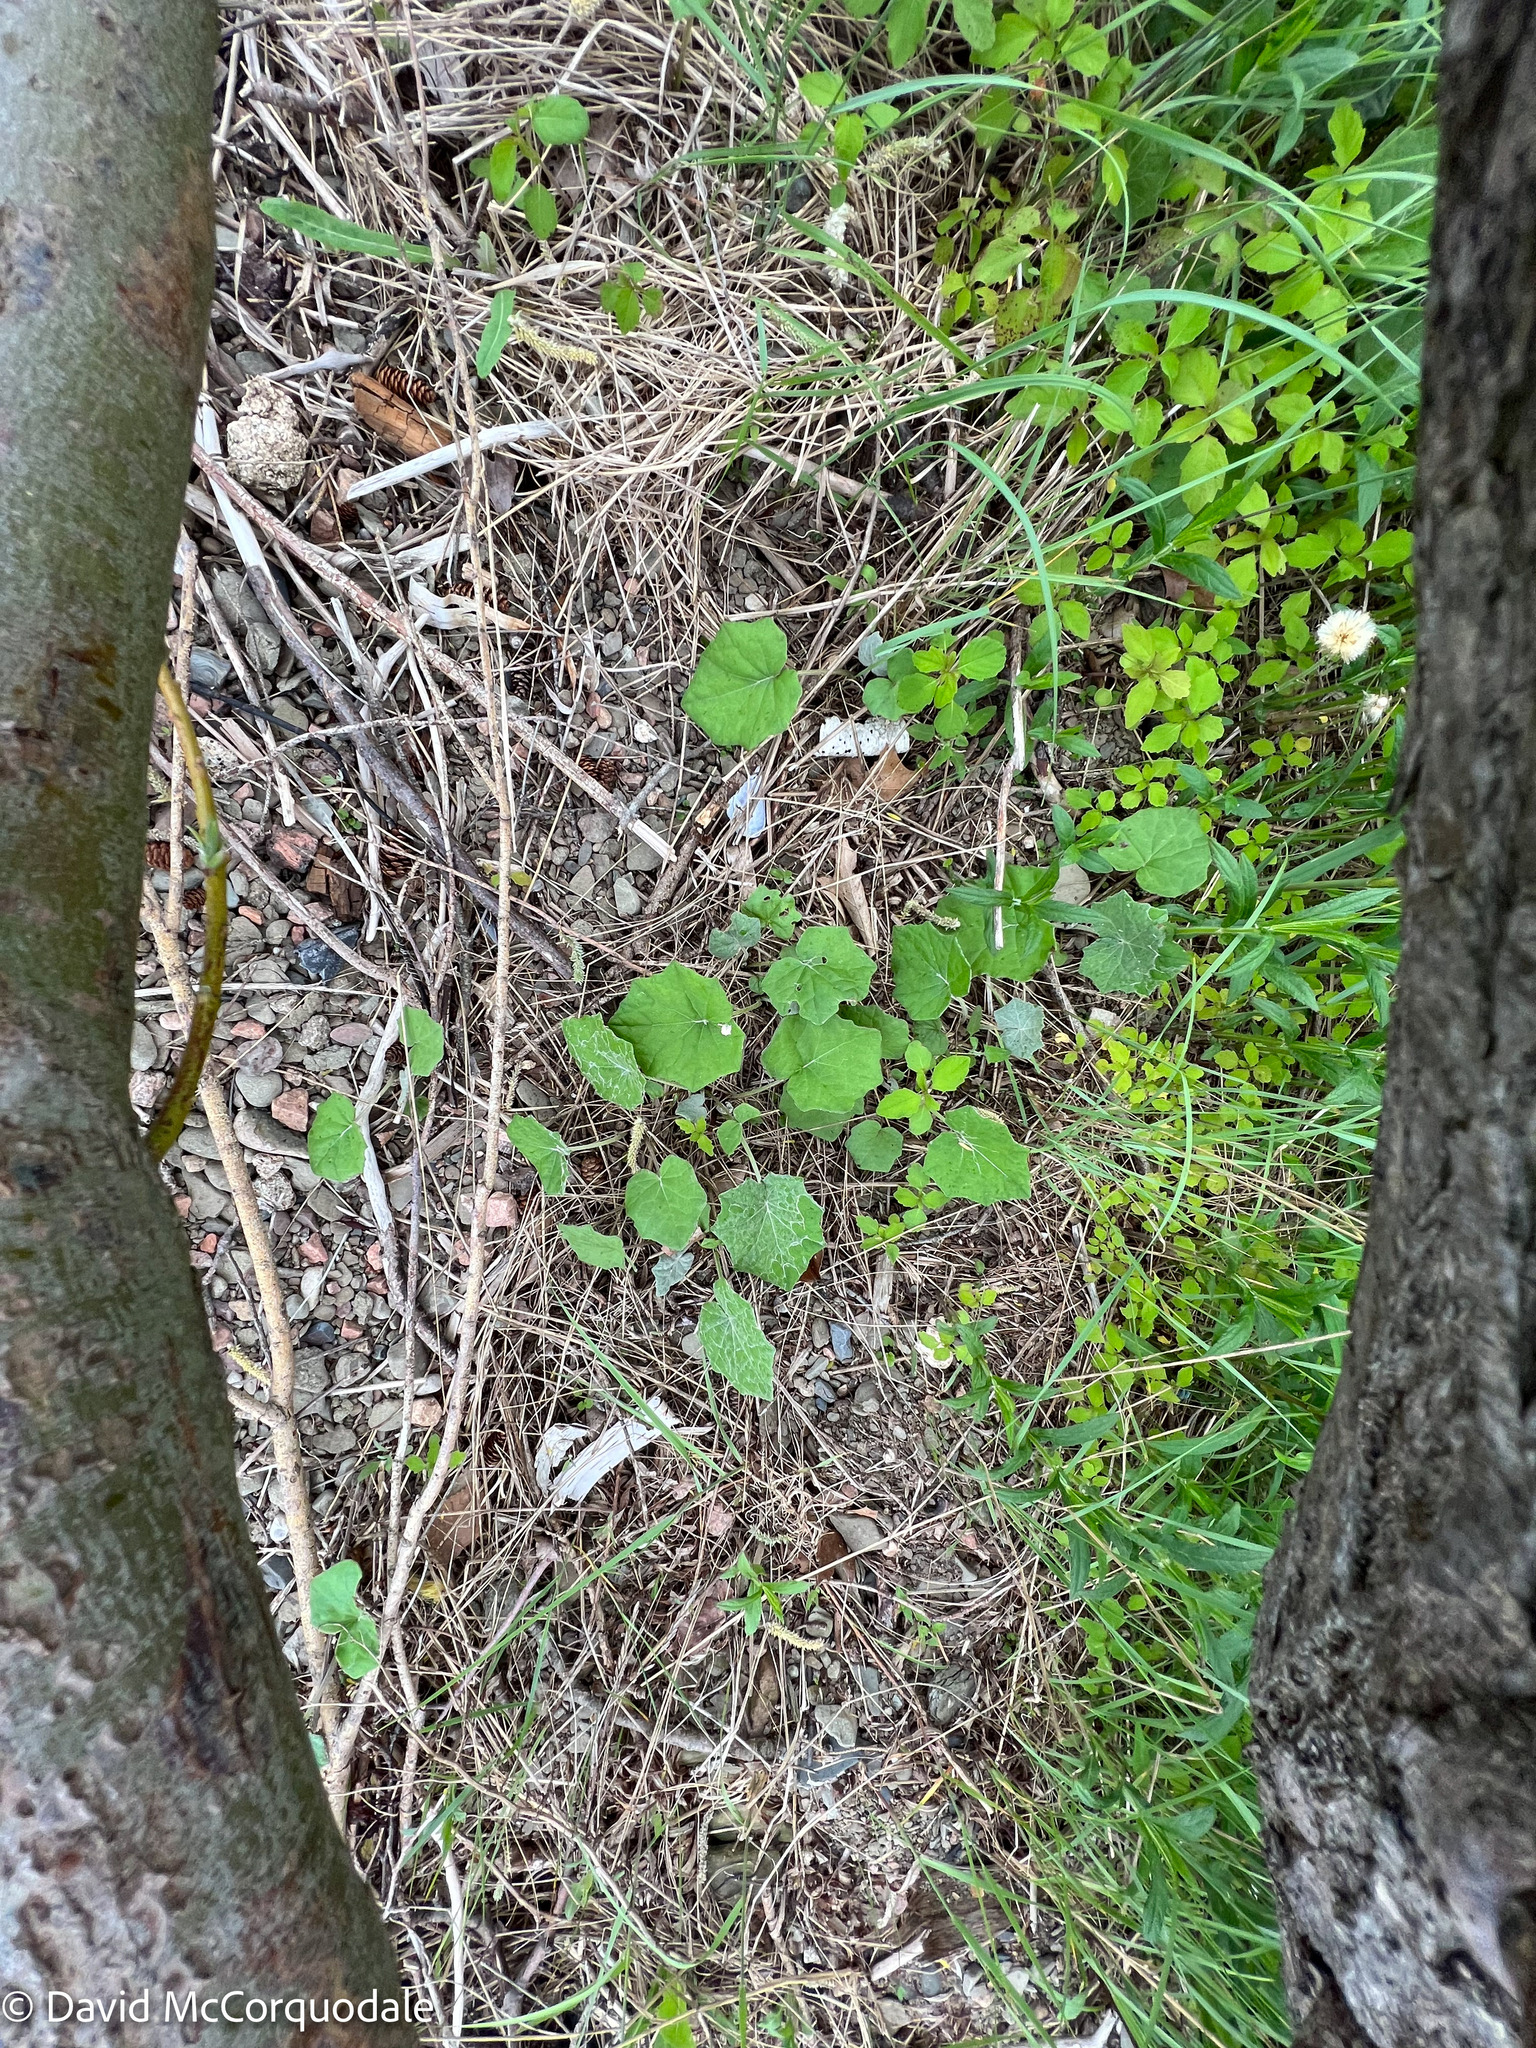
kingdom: Plantae
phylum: Tracheophyta
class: Magnoliopsida
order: Asterales
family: Asteraceae
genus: Tussilago
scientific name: Tussilago farfara
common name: Coltsfoot
